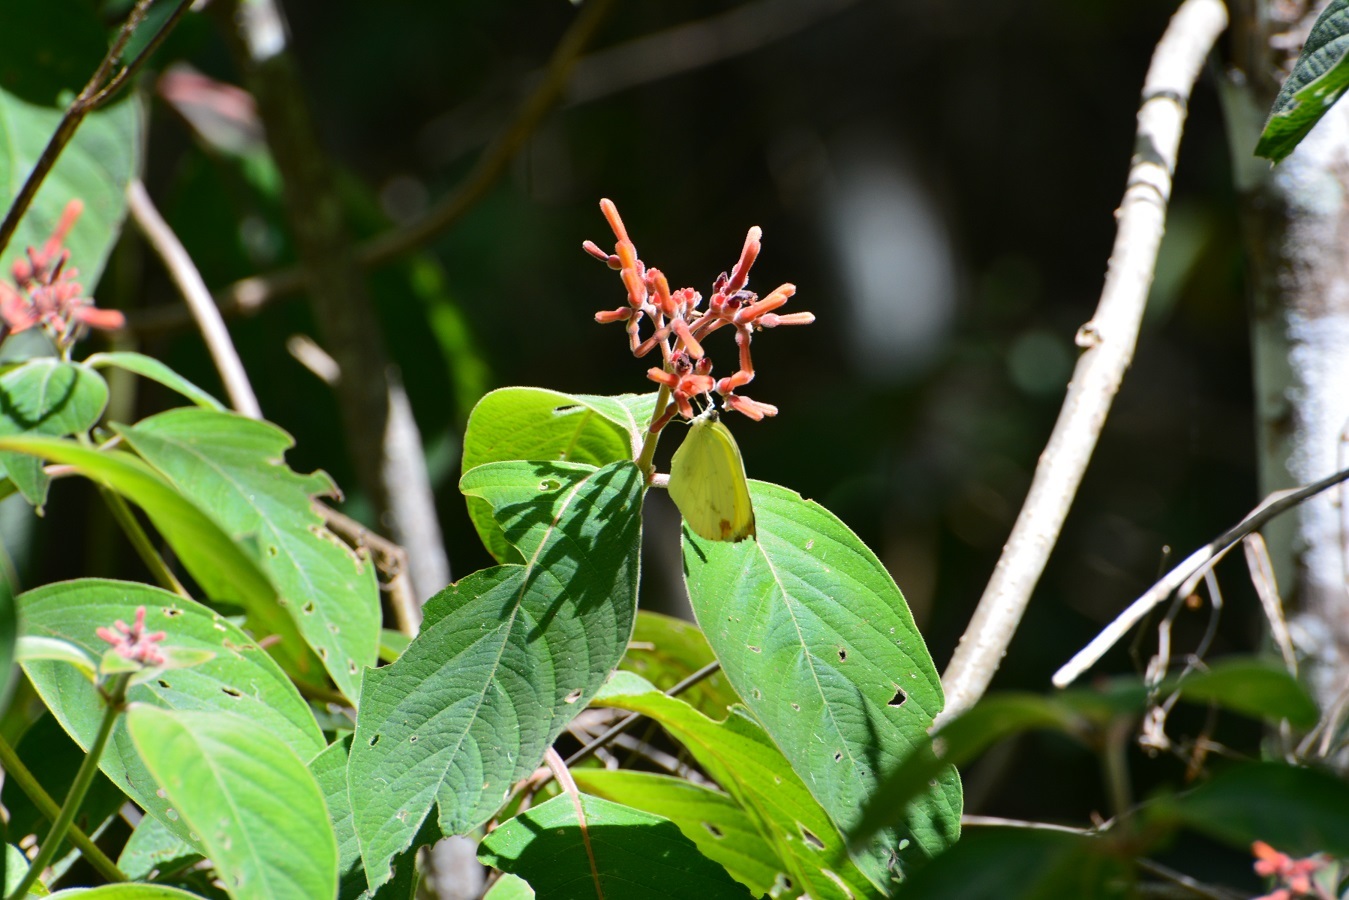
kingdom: Animalia
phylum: Arthropoda
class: Insecta
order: Lepidoptera
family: Pieridae
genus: Pyrisitia
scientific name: Pyrisitia nise
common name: Mimosa yellow
